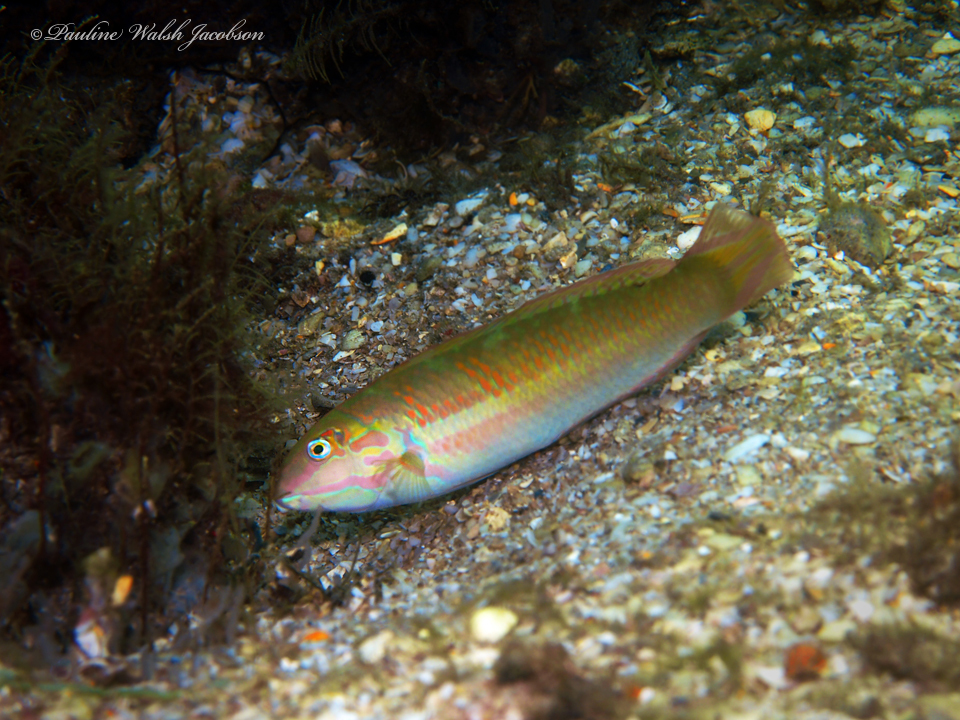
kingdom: Animalia
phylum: Chordata
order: Perciformes
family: Labridae
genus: Halichoeres
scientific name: Halichoeres poeyi
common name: Blackear wrasse
